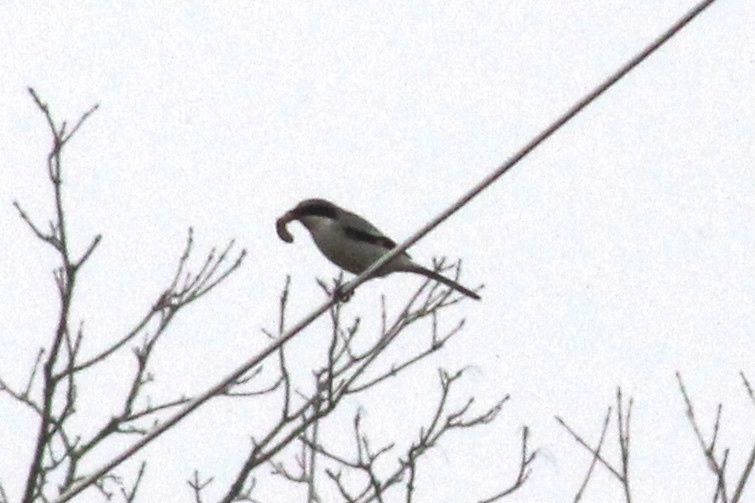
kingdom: Animalia
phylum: Chordata
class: Aves
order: Passeriformes
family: Laniidae
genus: Lanius
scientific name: Lanius ludovicianus
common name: Loggerhead shrike
